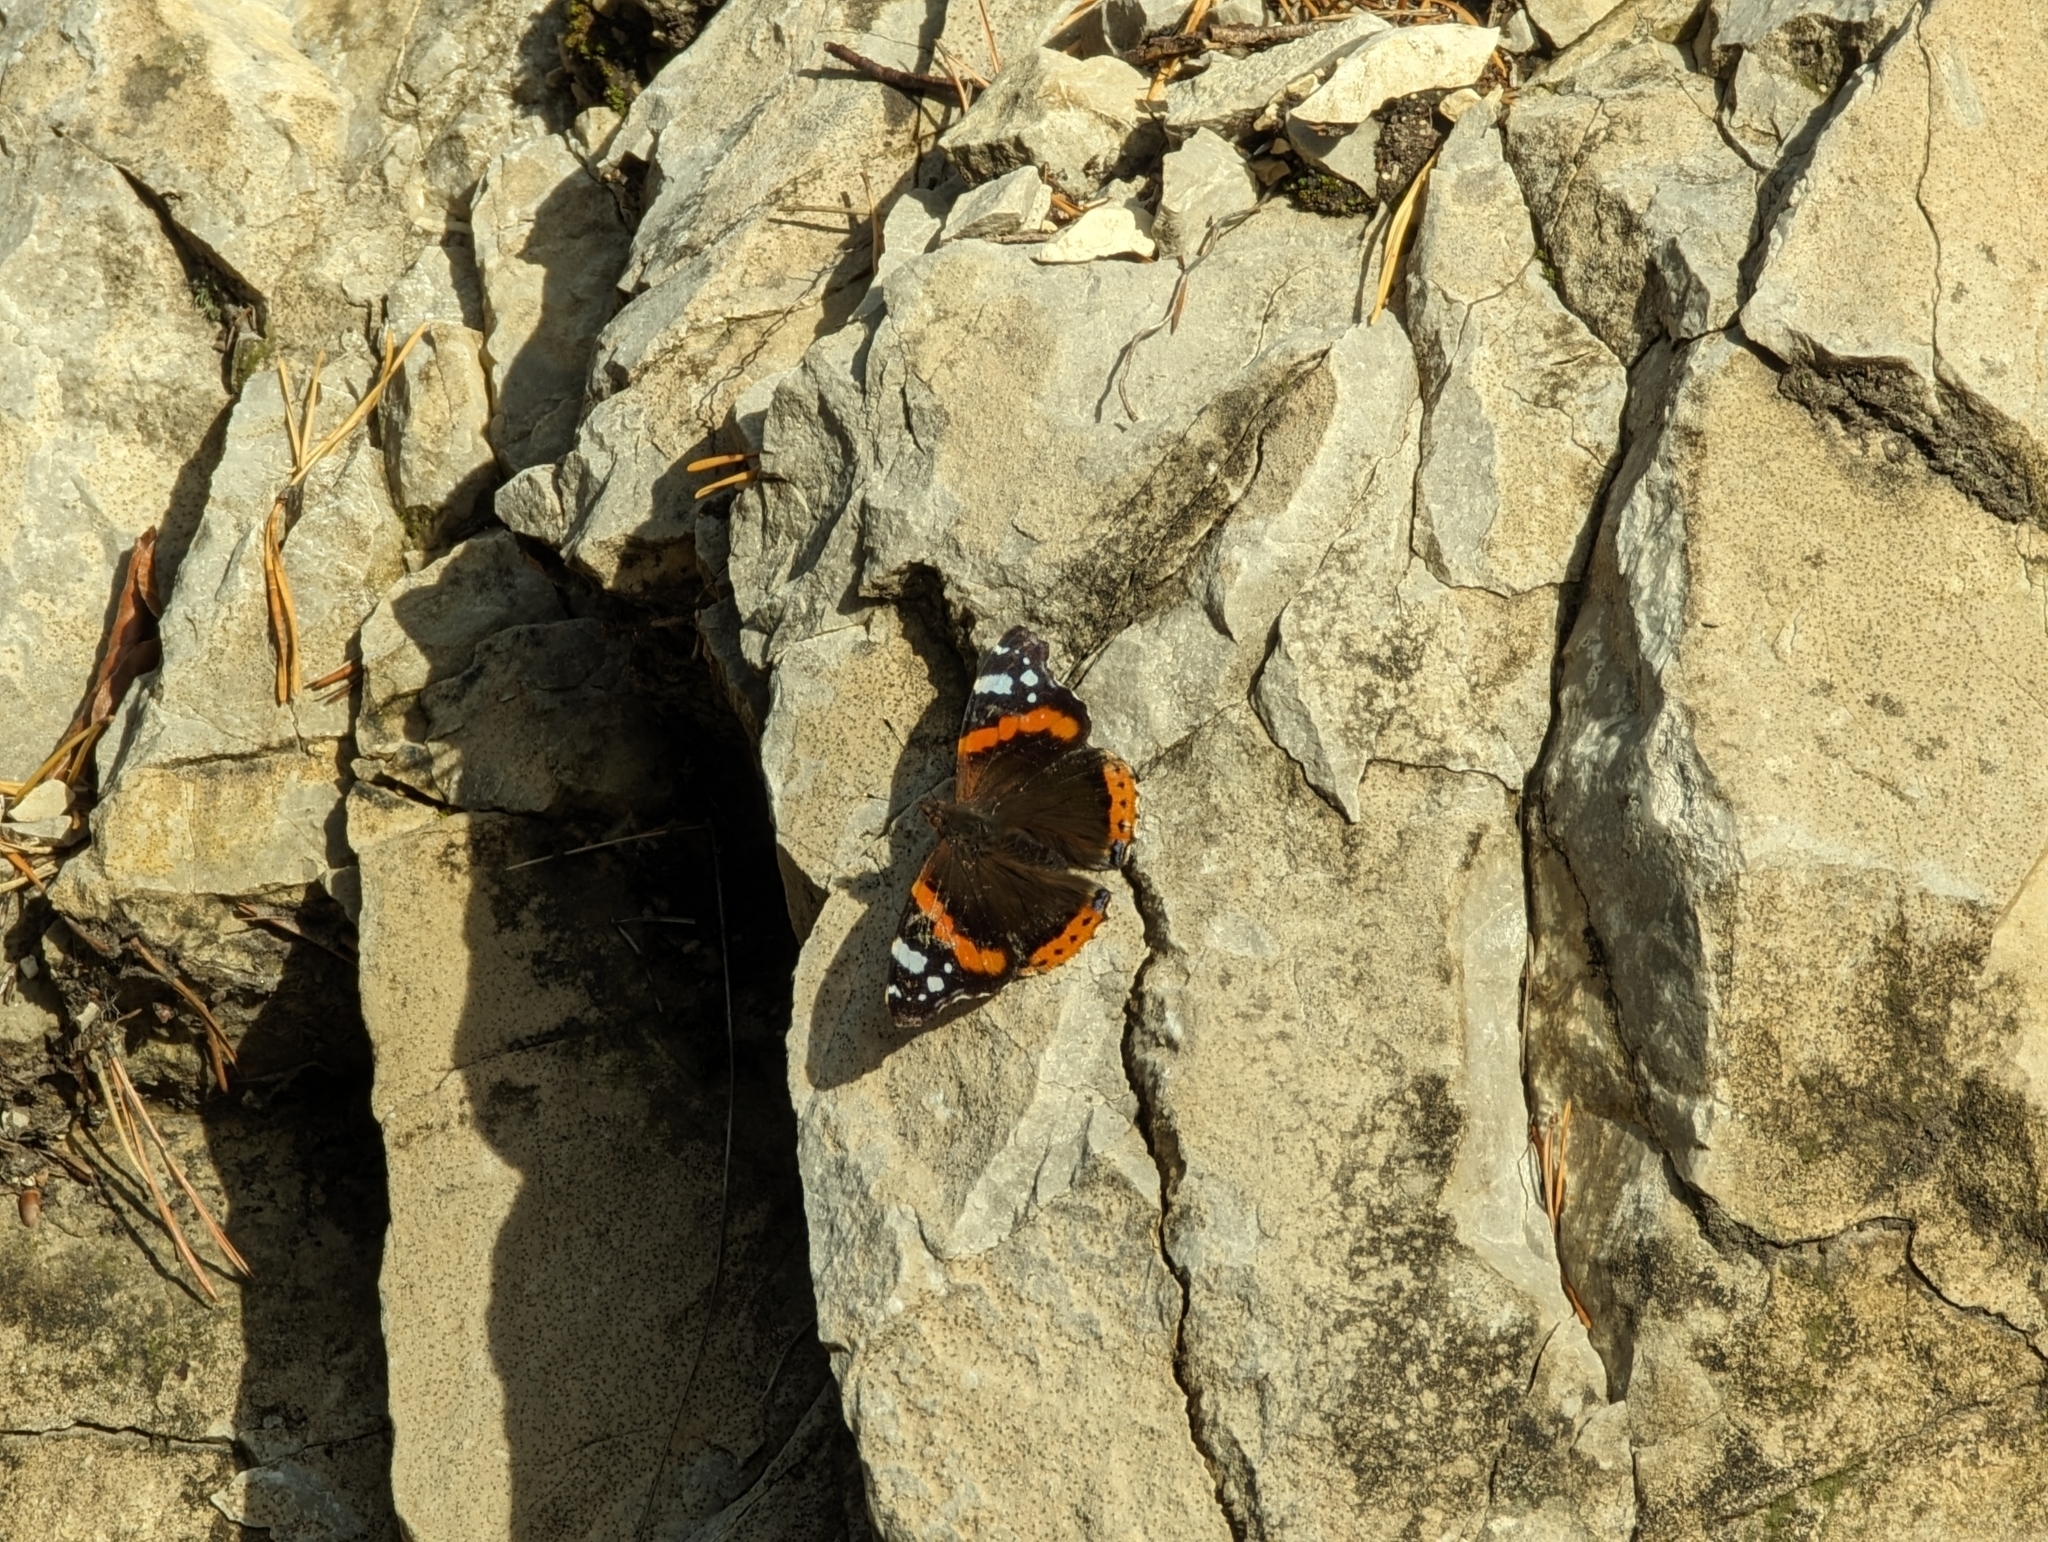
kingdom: Animalia
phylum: Arthropoda
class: Insecta
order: Lepidoptera
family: Nymphalidae
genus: Vanessa
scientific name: Vanessa atalanta
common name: Red admiral
